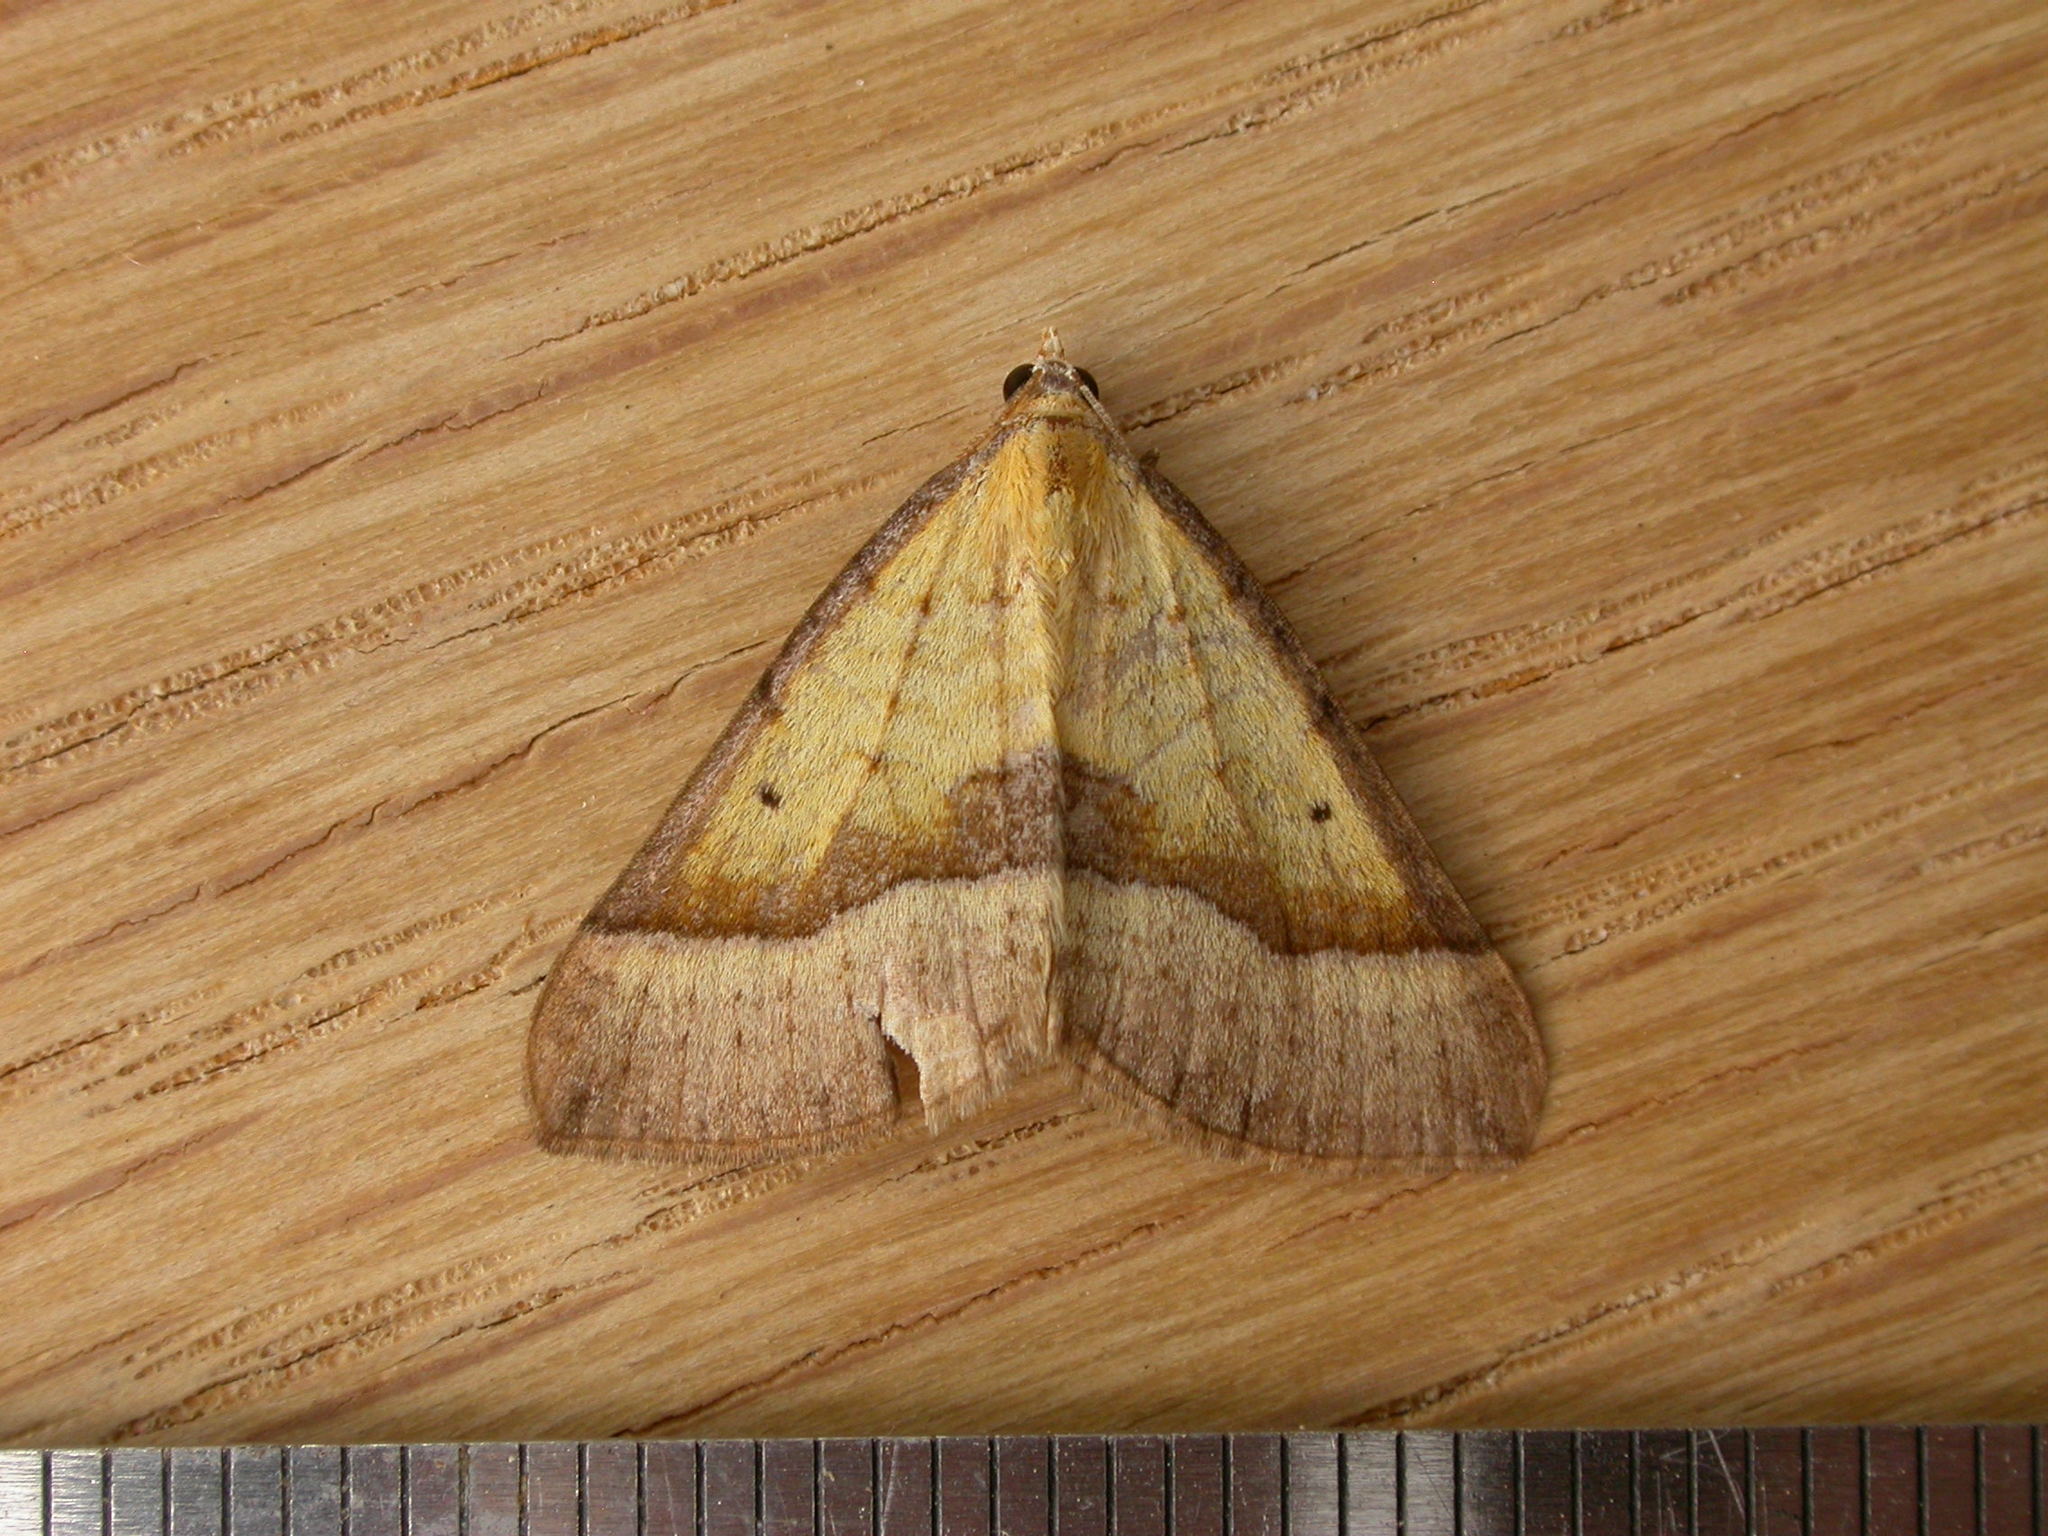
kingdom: Animalia
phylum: Arthropoda
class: Insecta
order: Lepidoptera
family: Geometridae
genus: Anachloris
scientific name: Anachloris subochraria
